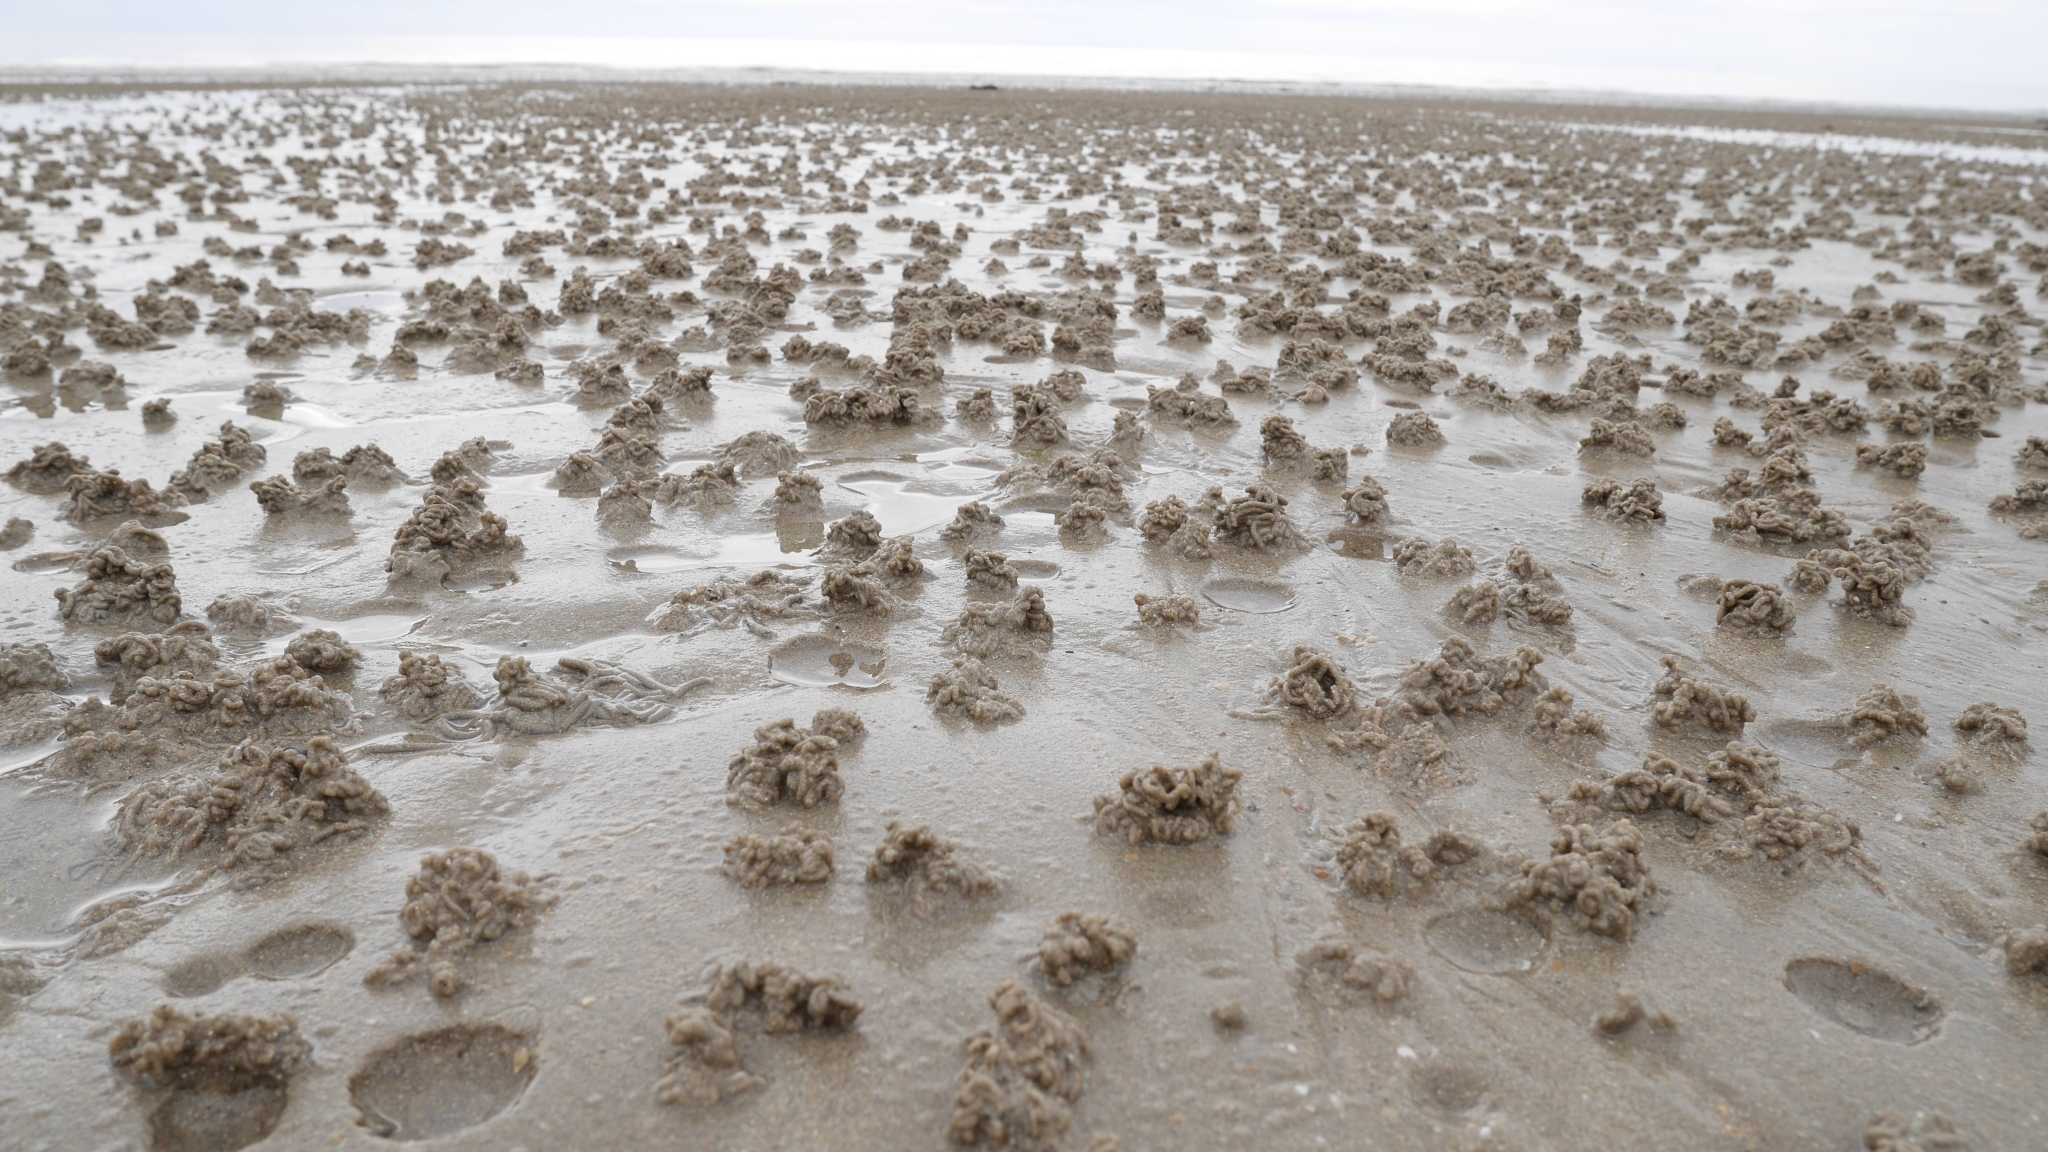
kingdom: Animalia
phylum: Annelida
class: Polychaeta
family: Arenicolidae
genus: Arenicola
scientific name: Arenicola marina
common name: Blow lugworm
